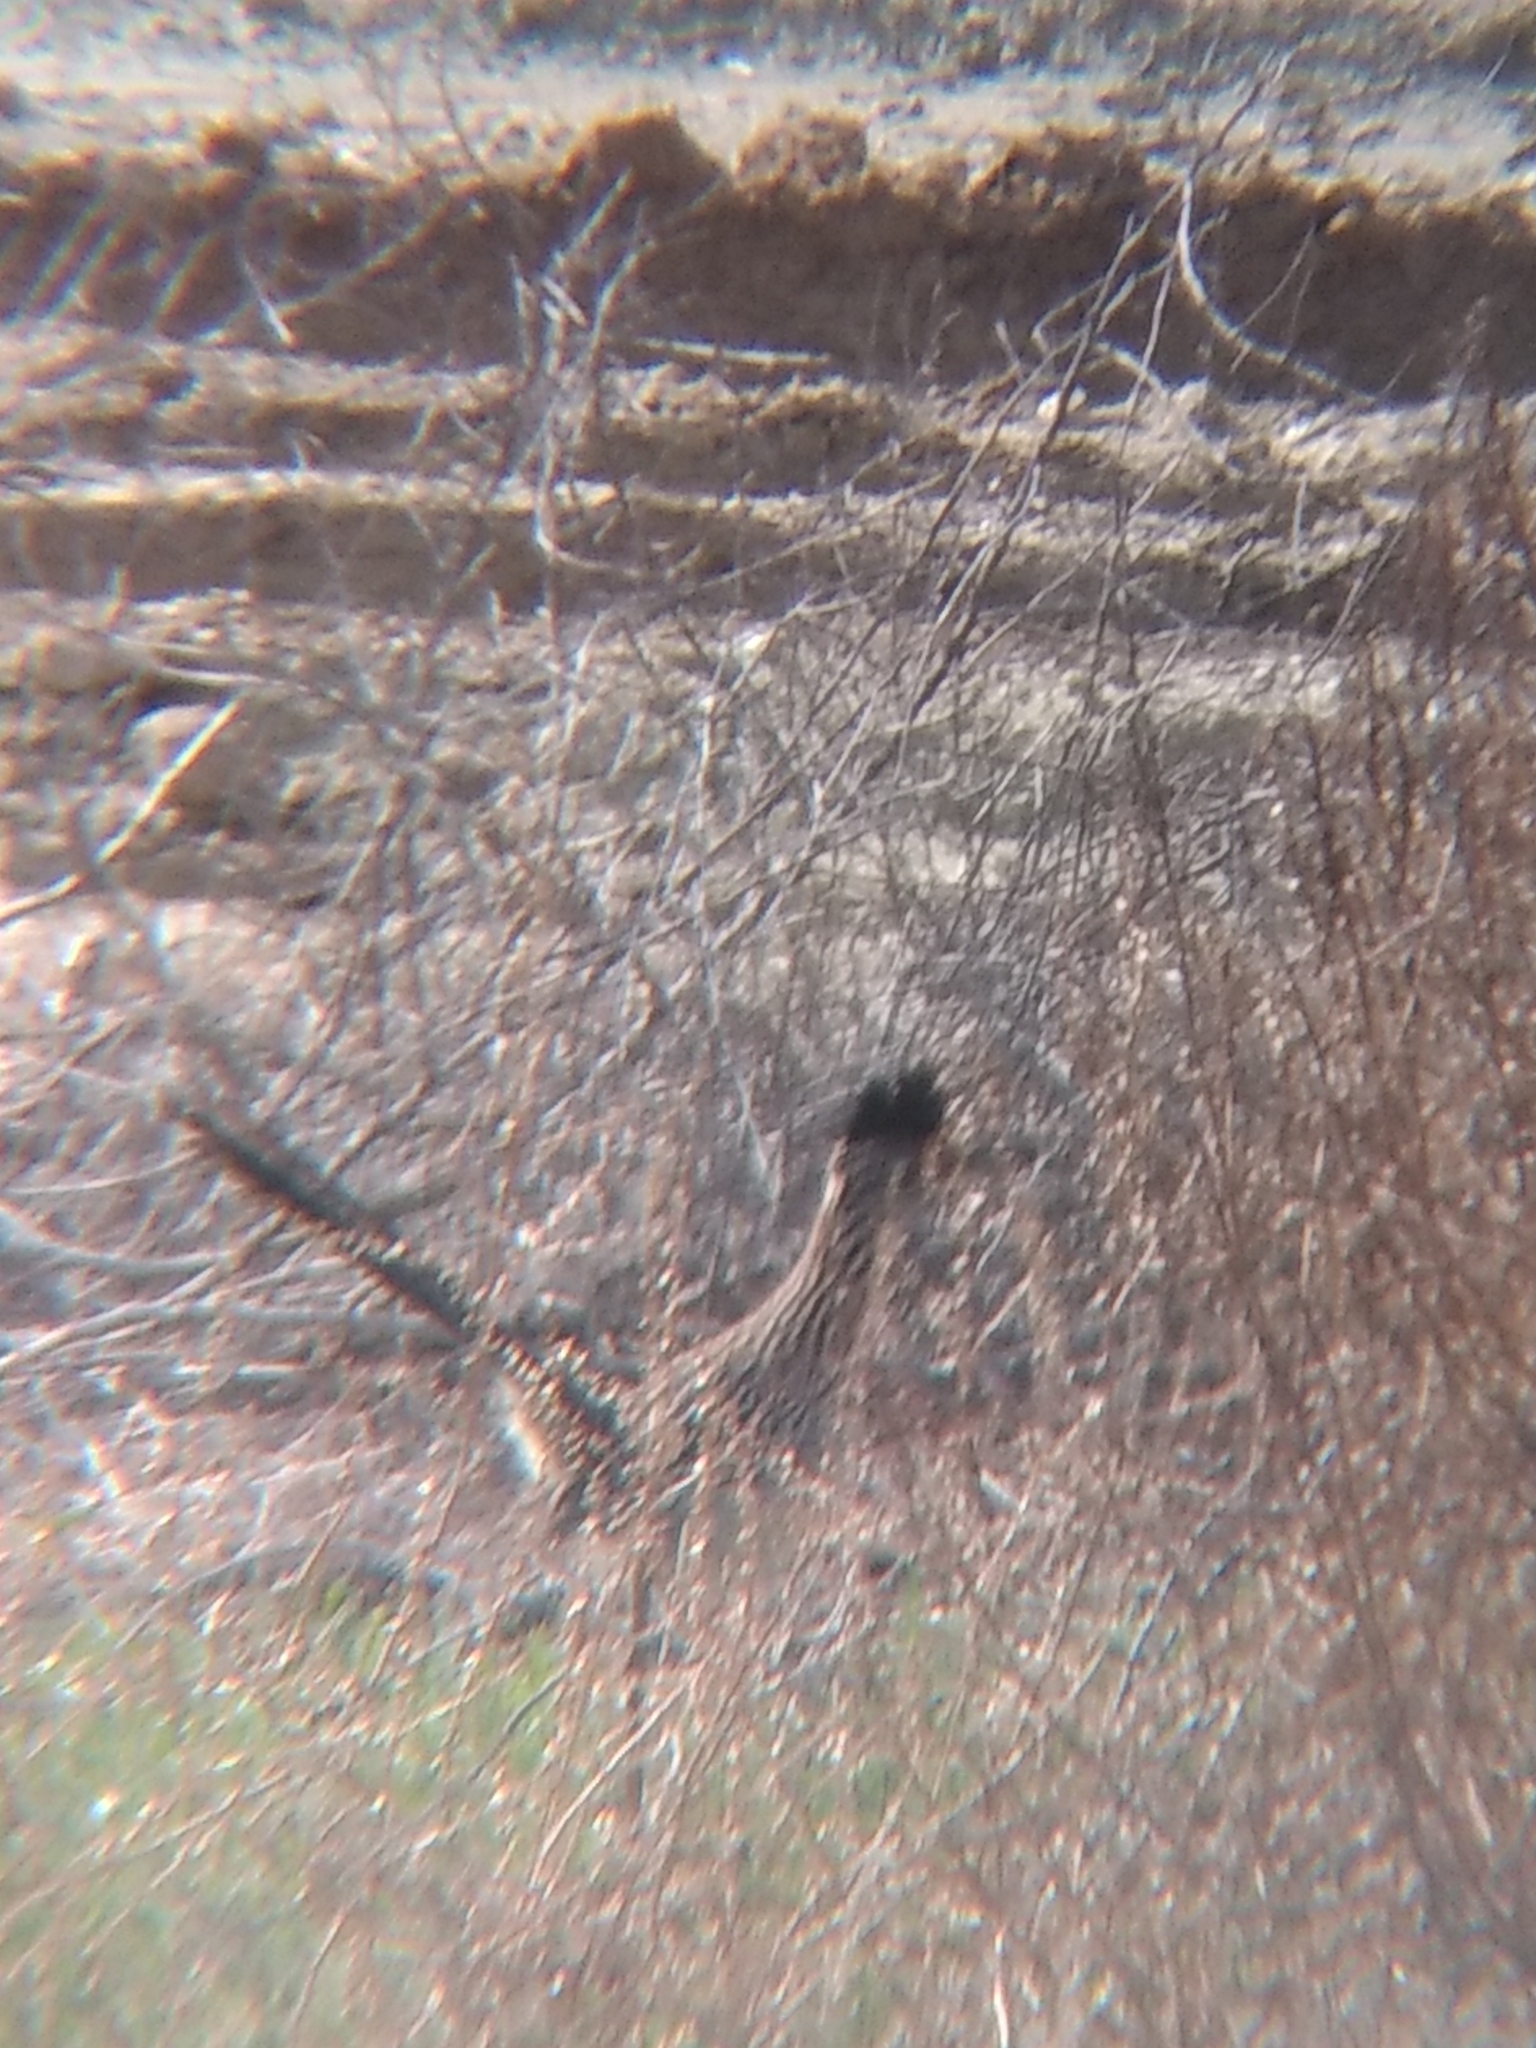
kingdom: Animalia
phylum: Chordata
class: Aves
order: Cuculiformes
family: Cuculidae
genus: Geococcyx
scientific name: Geococcyx californianus
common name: Greater roadrunner
